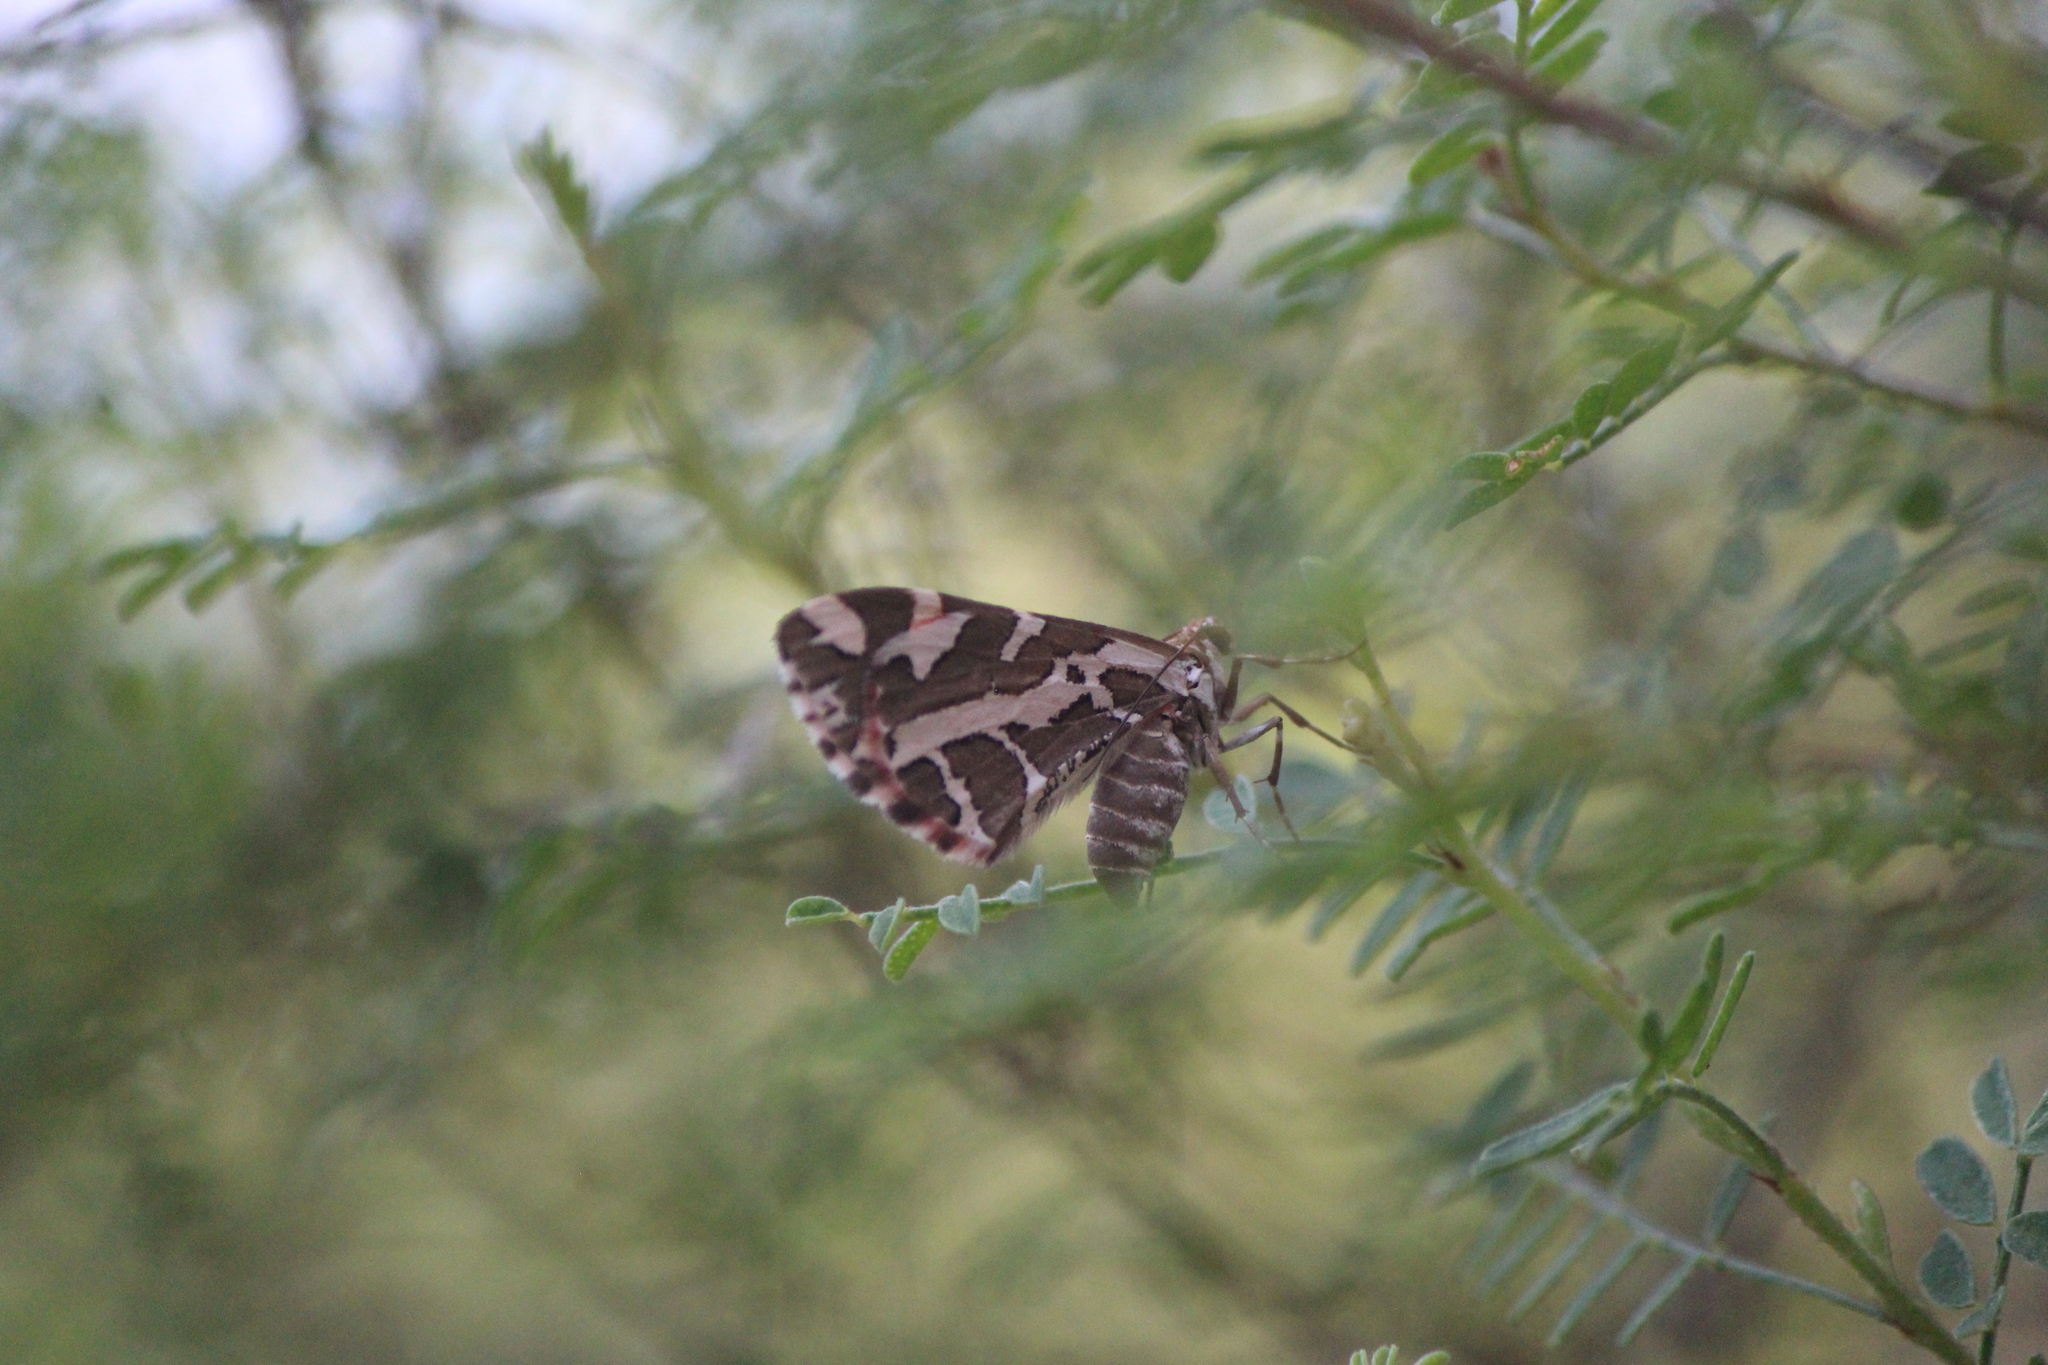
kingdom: Animalia
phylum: Arthropoda
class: Insecta
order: Lepidoptera
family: Geometridae
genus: Stamnodes
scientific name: Stamnodes
